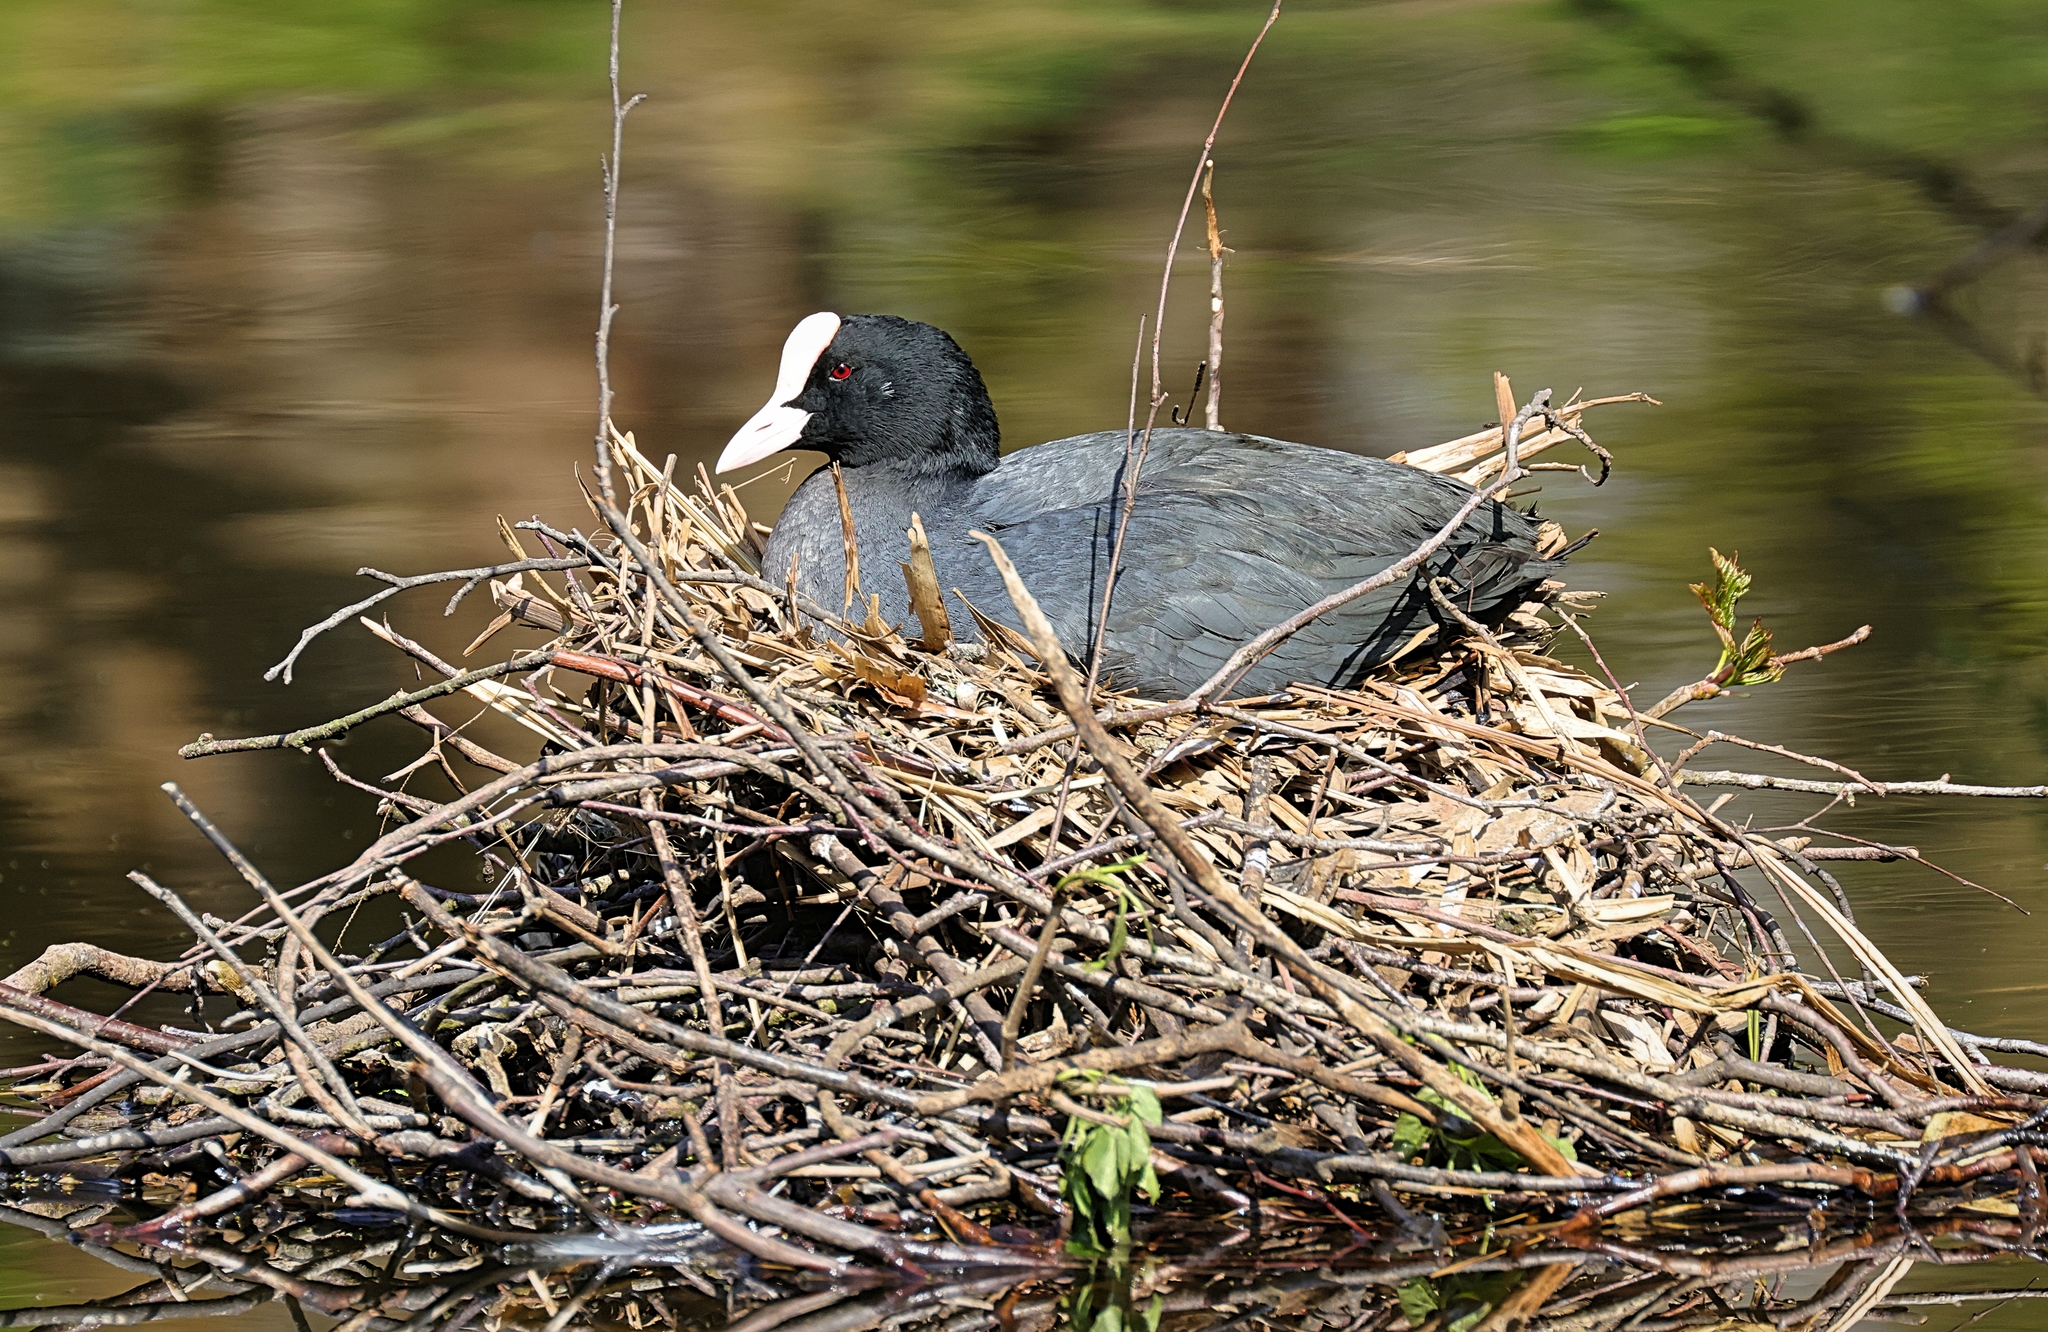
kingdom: Animalia
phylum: Chordata
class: Aves
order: Gruiformes
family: Rallidae
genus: Fulica
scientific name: Fulica atra
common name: Eurasian coot
